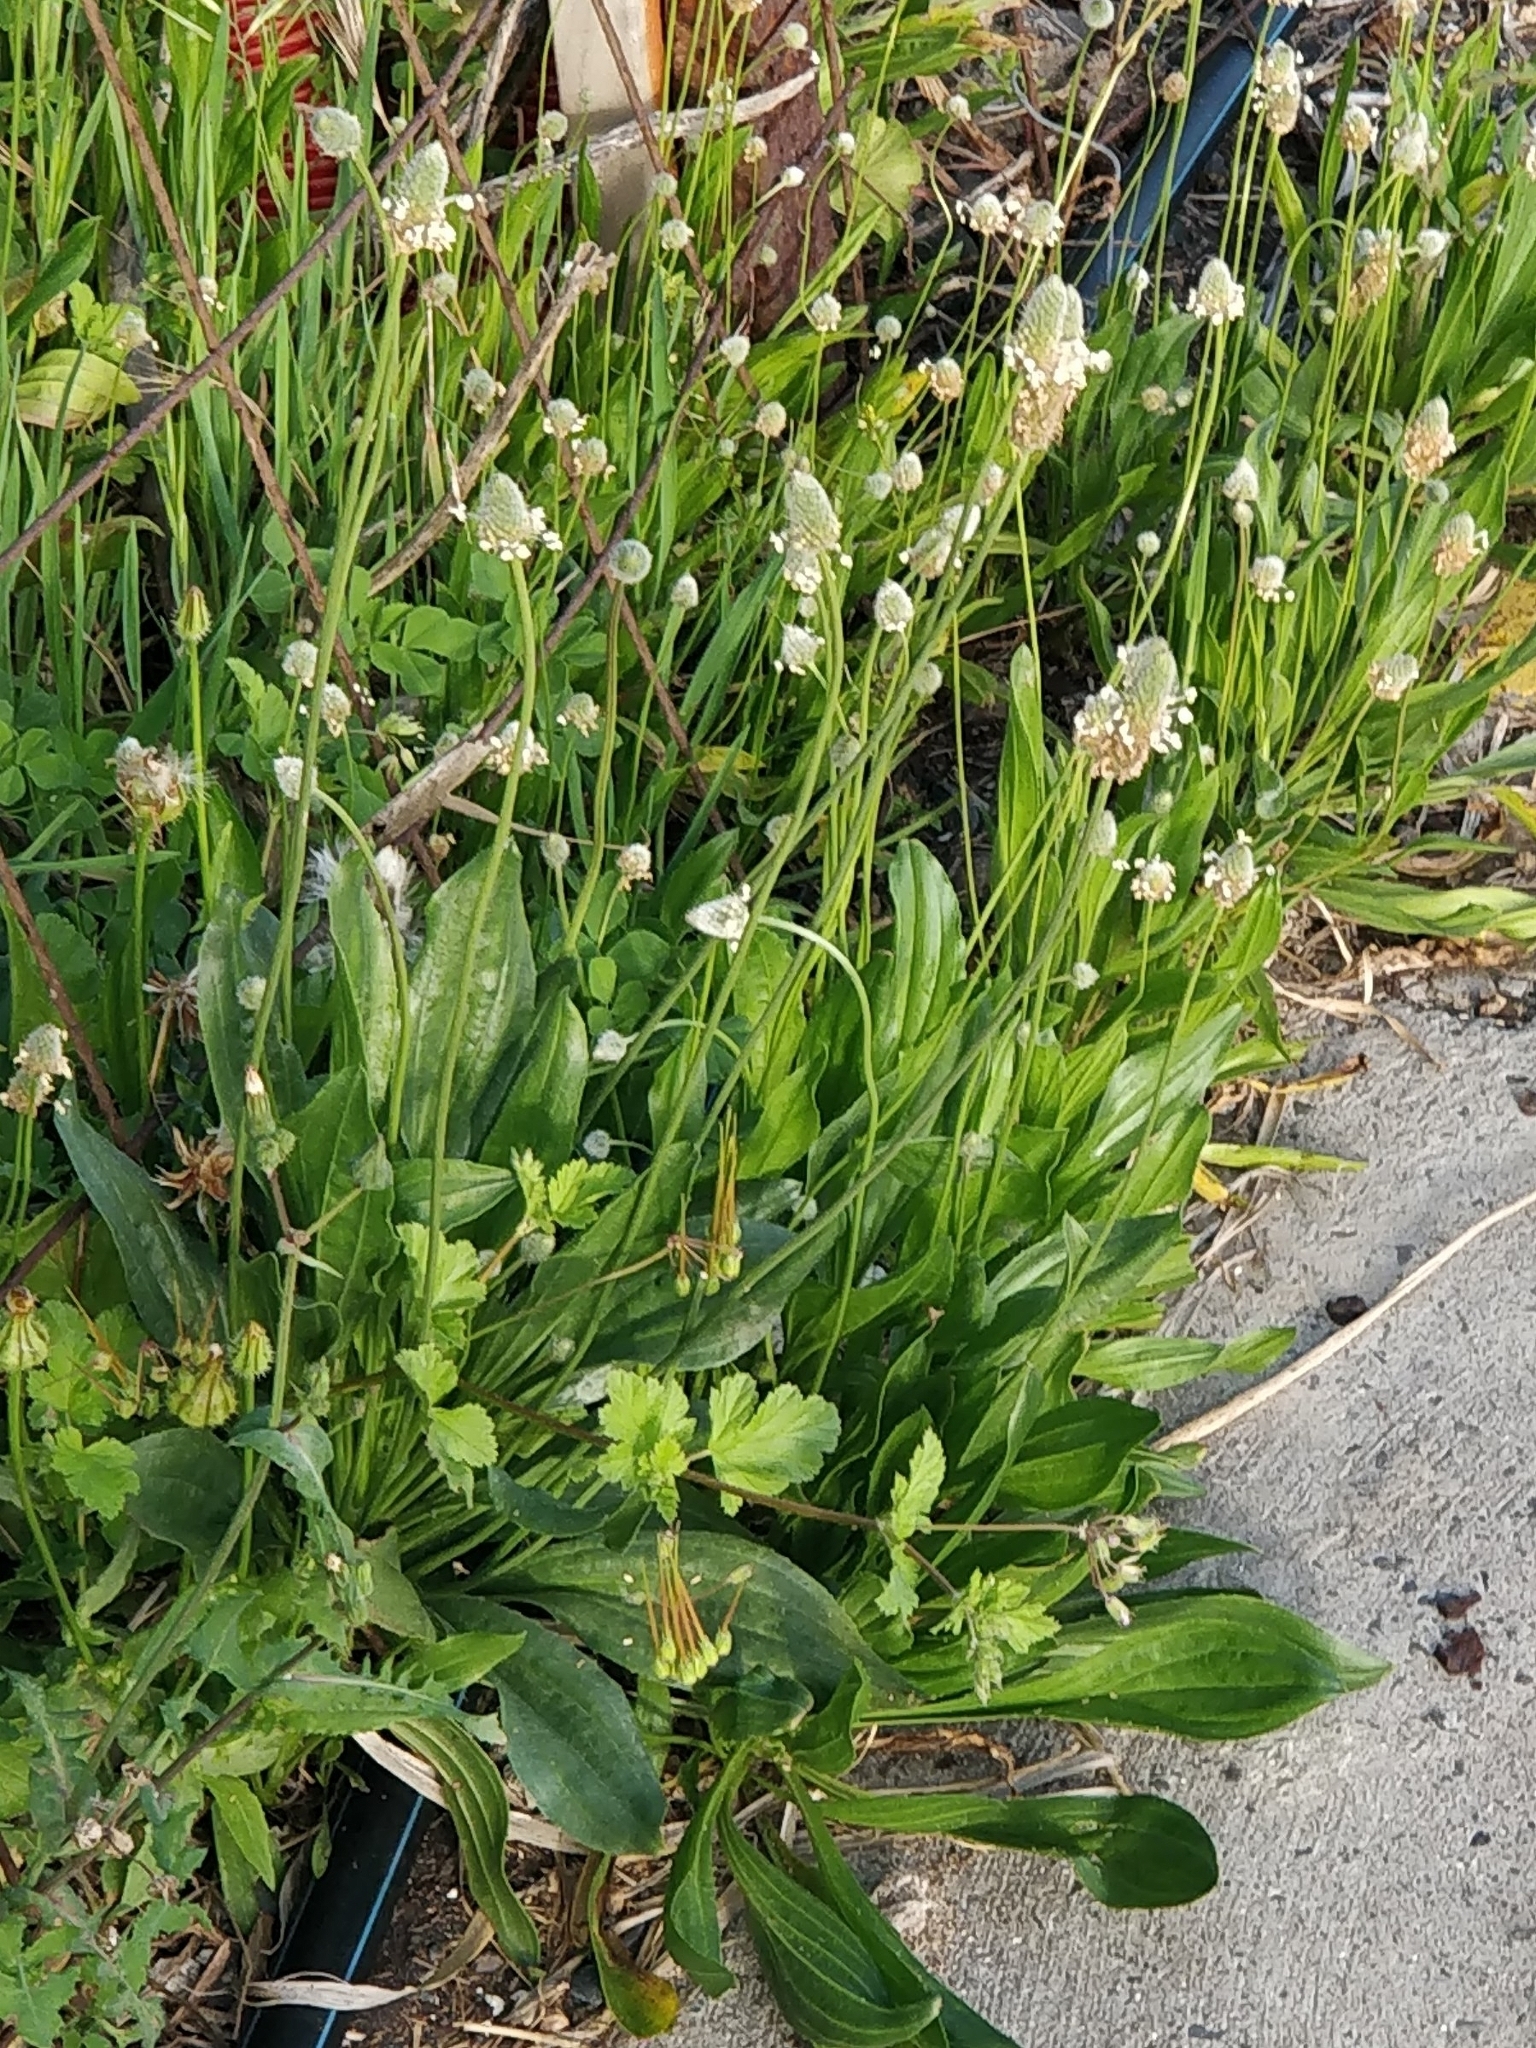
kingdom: Plantae
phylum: Tracheophyta
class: Magnoliopsida
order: Lamiales
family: Plantaginaceae
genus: Plantago
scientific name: Plantago lagopus
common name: Hare-foot plantain
